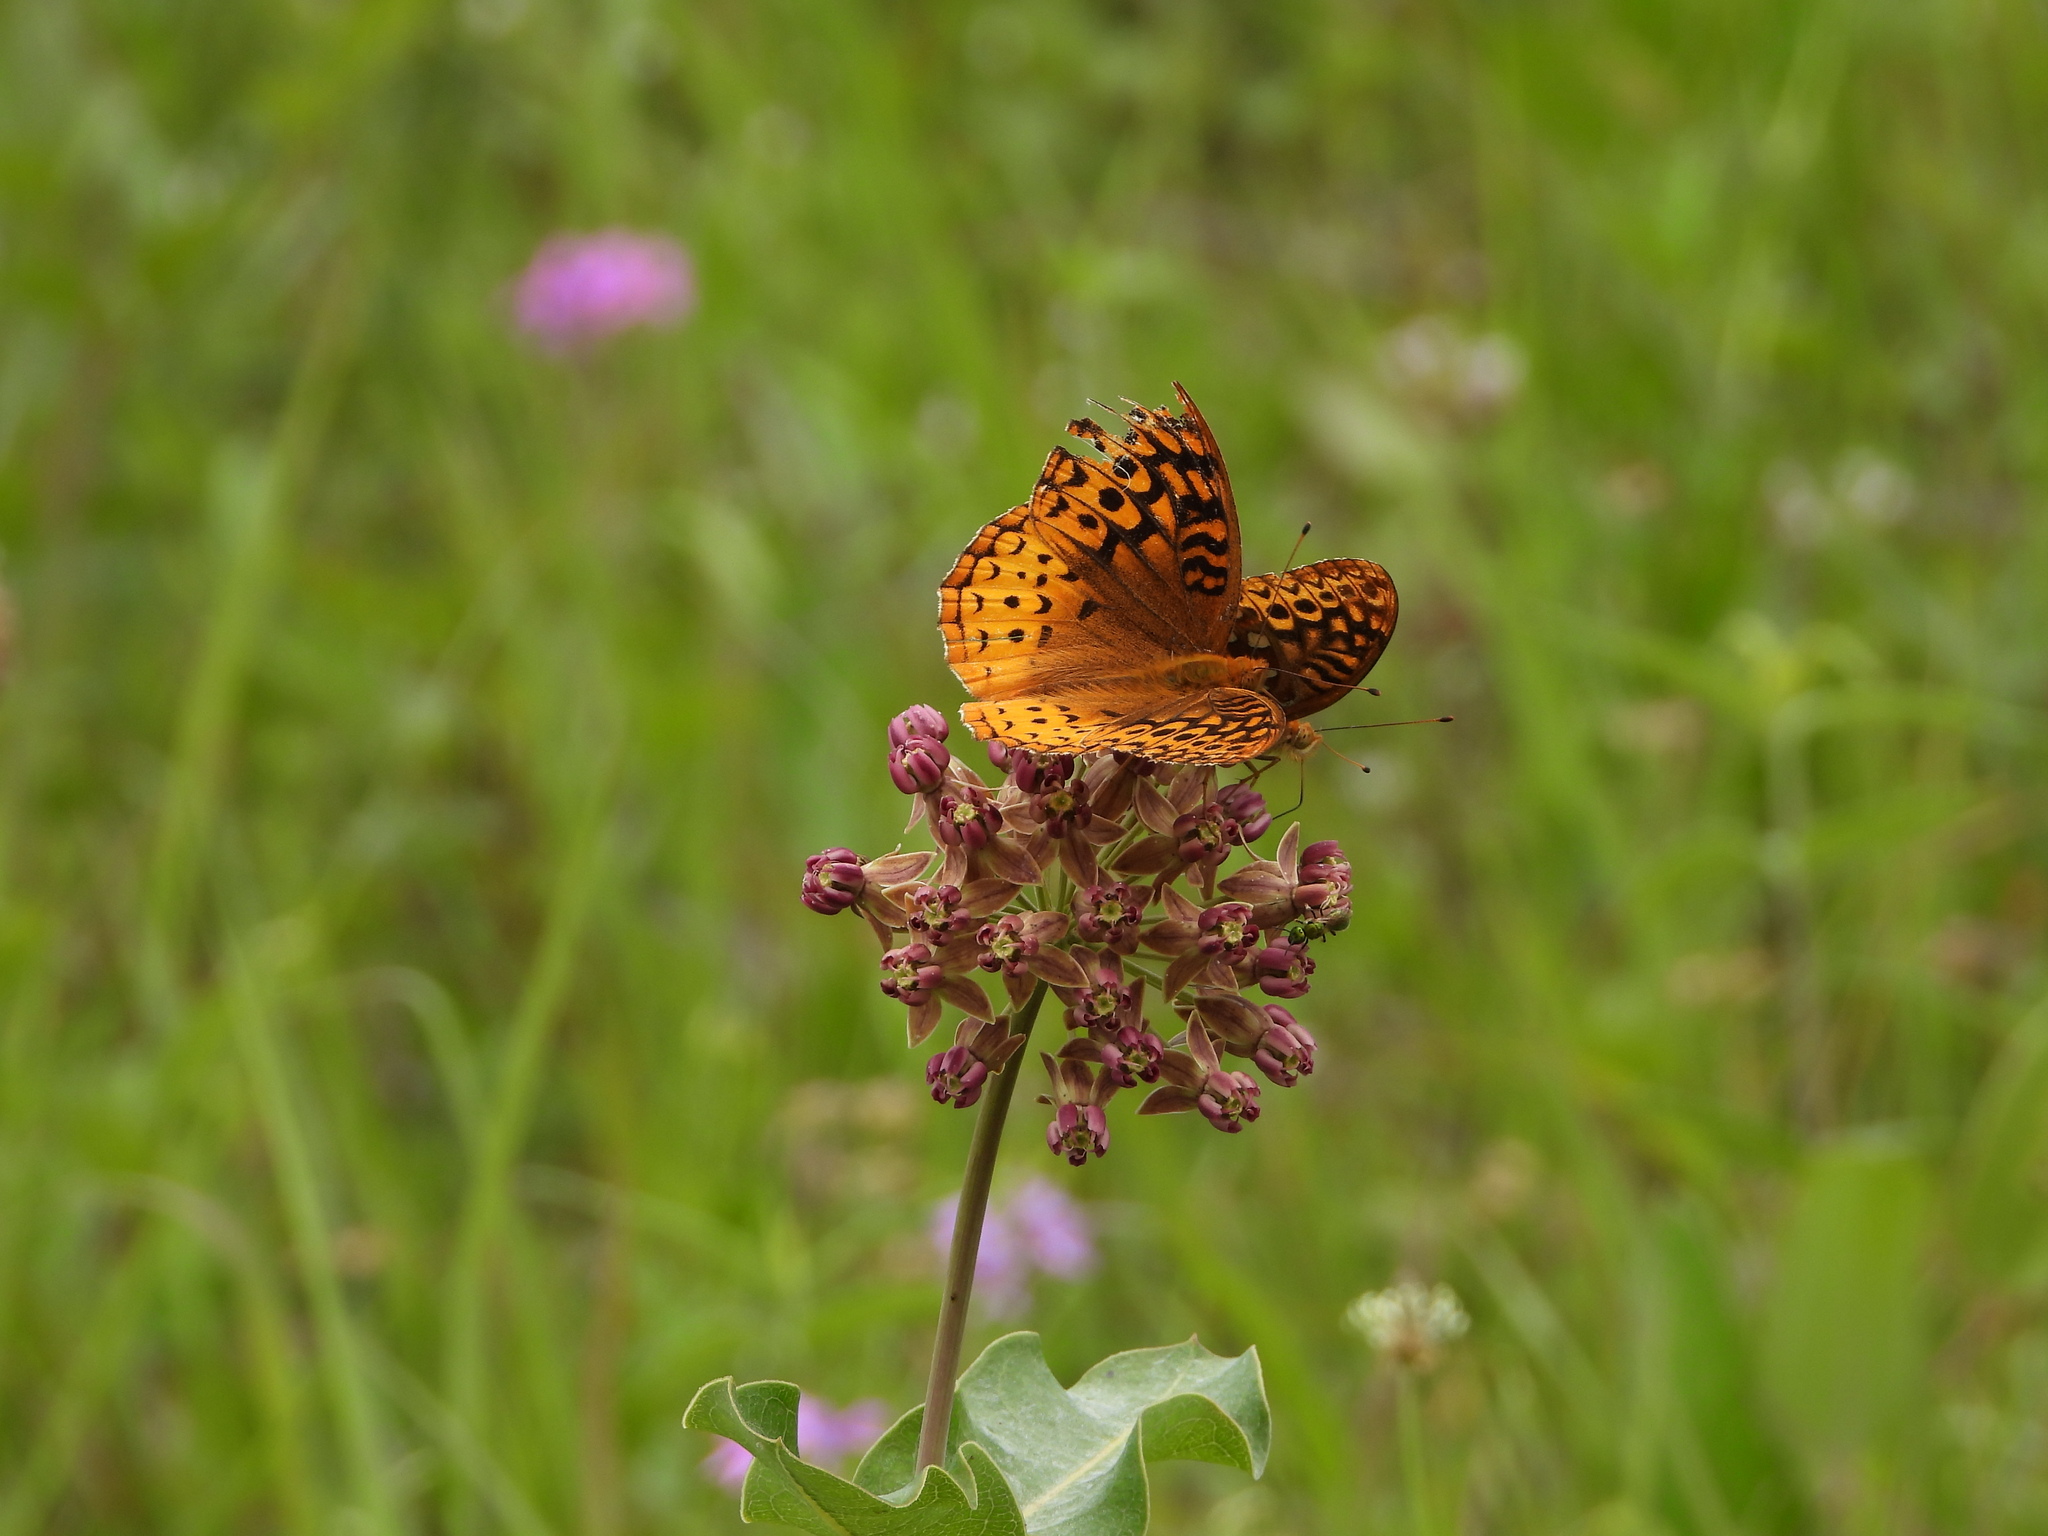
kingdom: Plantae
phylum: Tracheophyta
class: Magnoliopsida
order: Gentianales
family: Apocynaceae
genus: Asclepias
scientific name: Asclepias amplexicaulis
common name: Blunt-leaf milkweed
